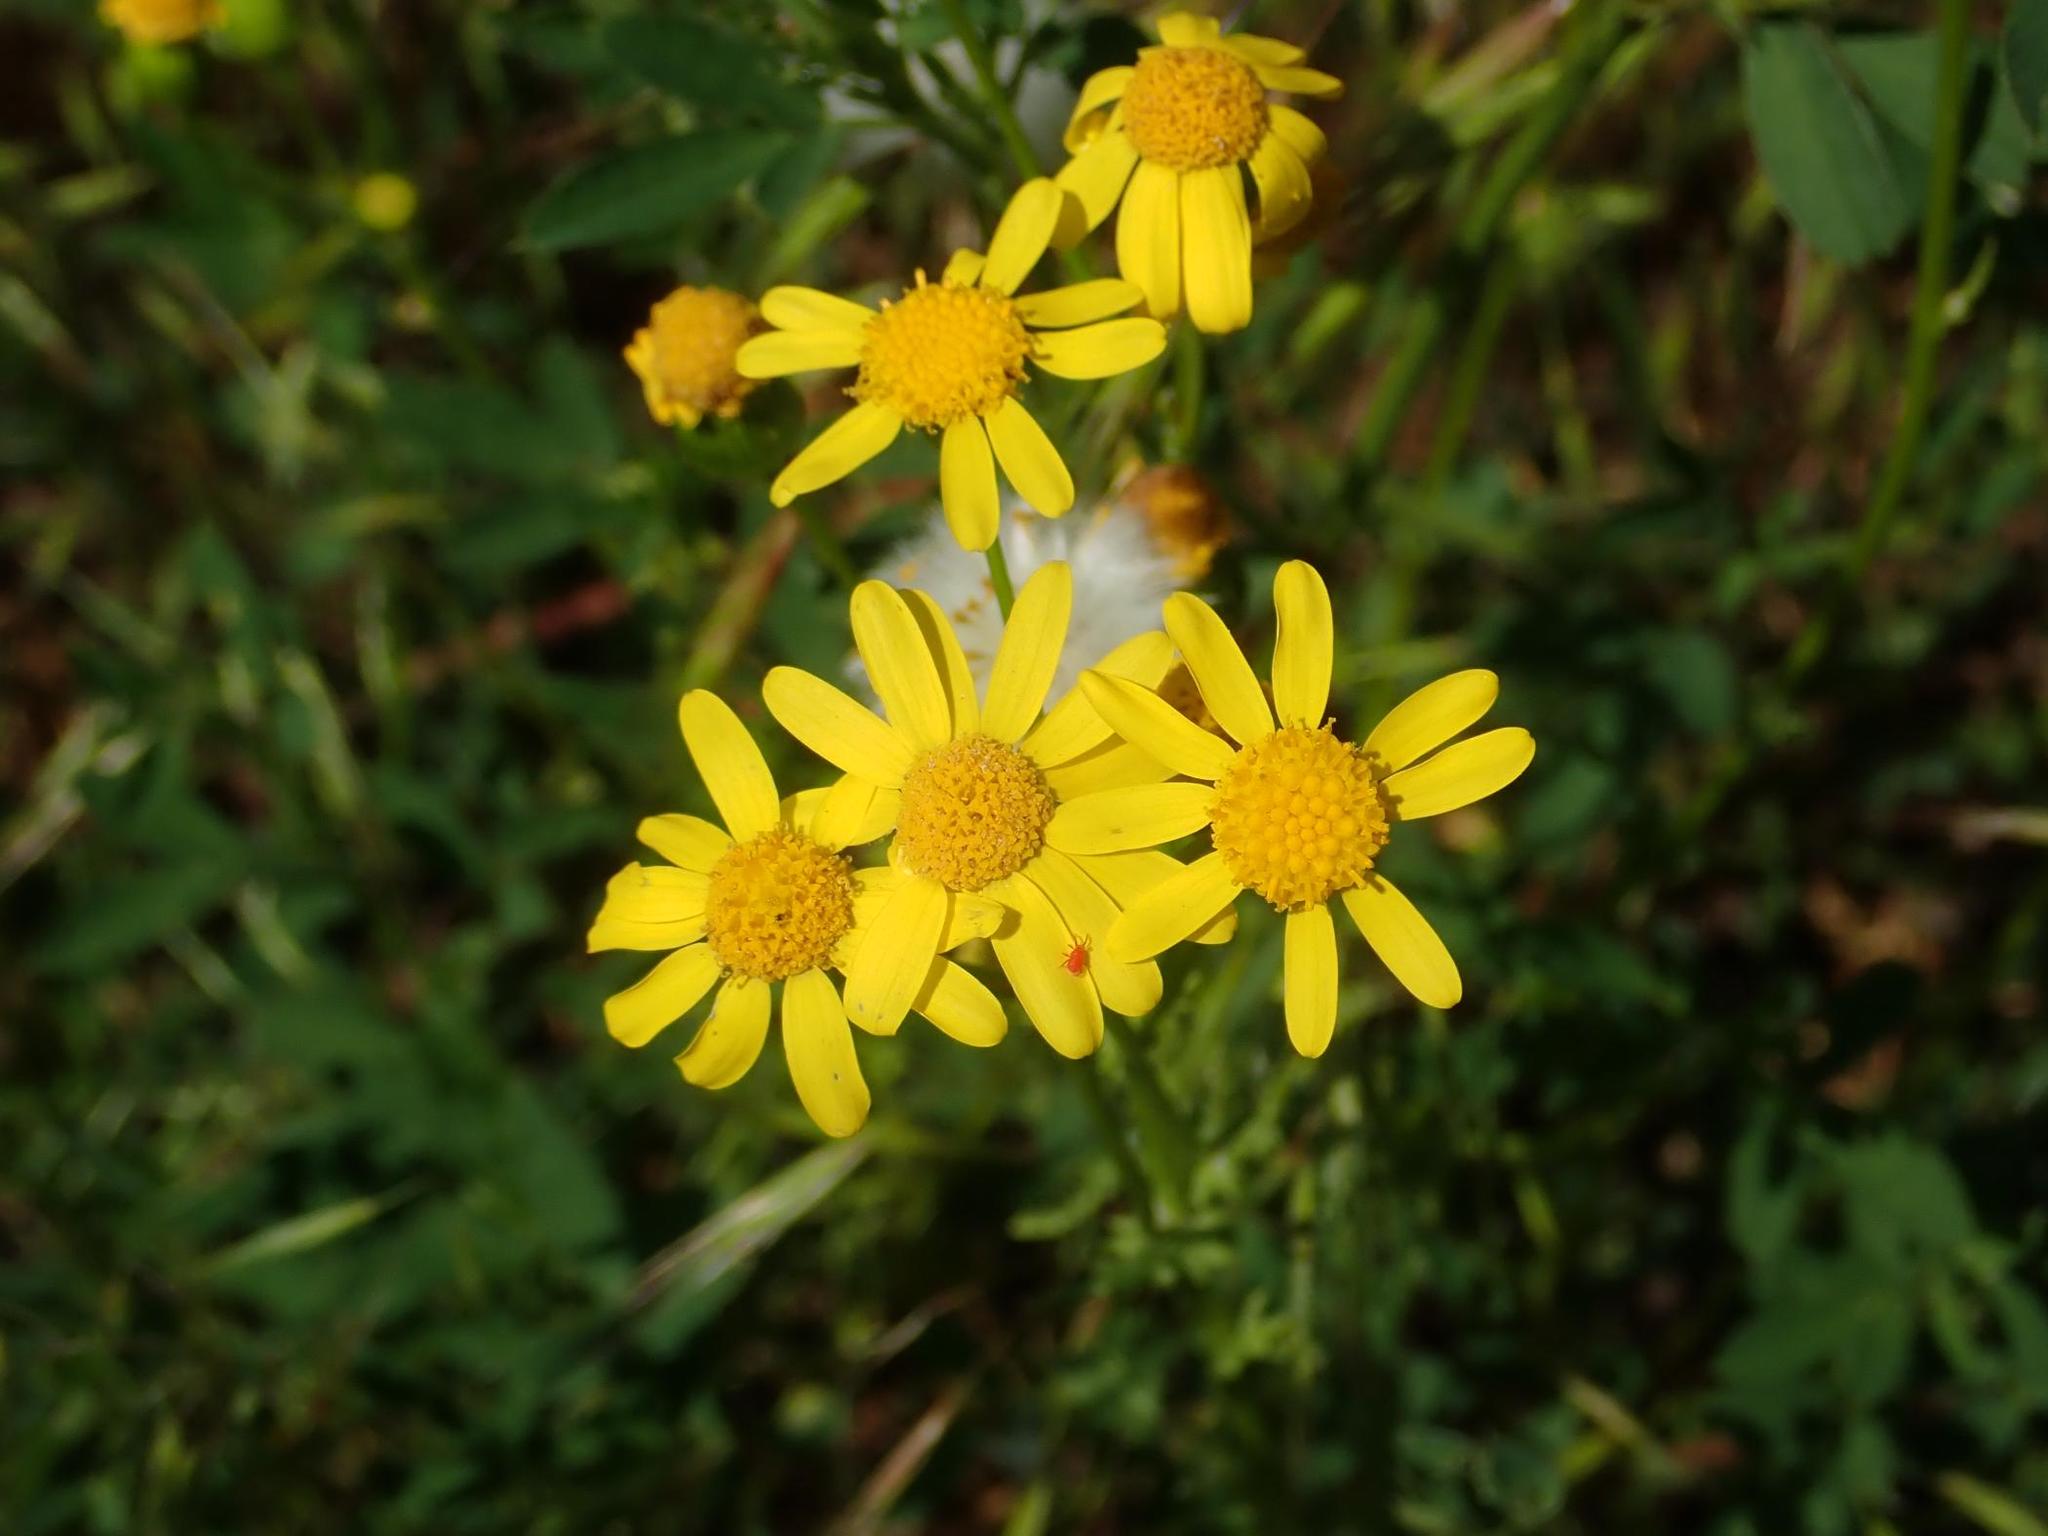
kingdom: Plantae
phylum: Tracheophyta
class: Magnoliopsida
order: Asterales
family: Asteraceae
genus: Senecio
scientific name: Senecio vernalis
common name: Eastern groundsel
